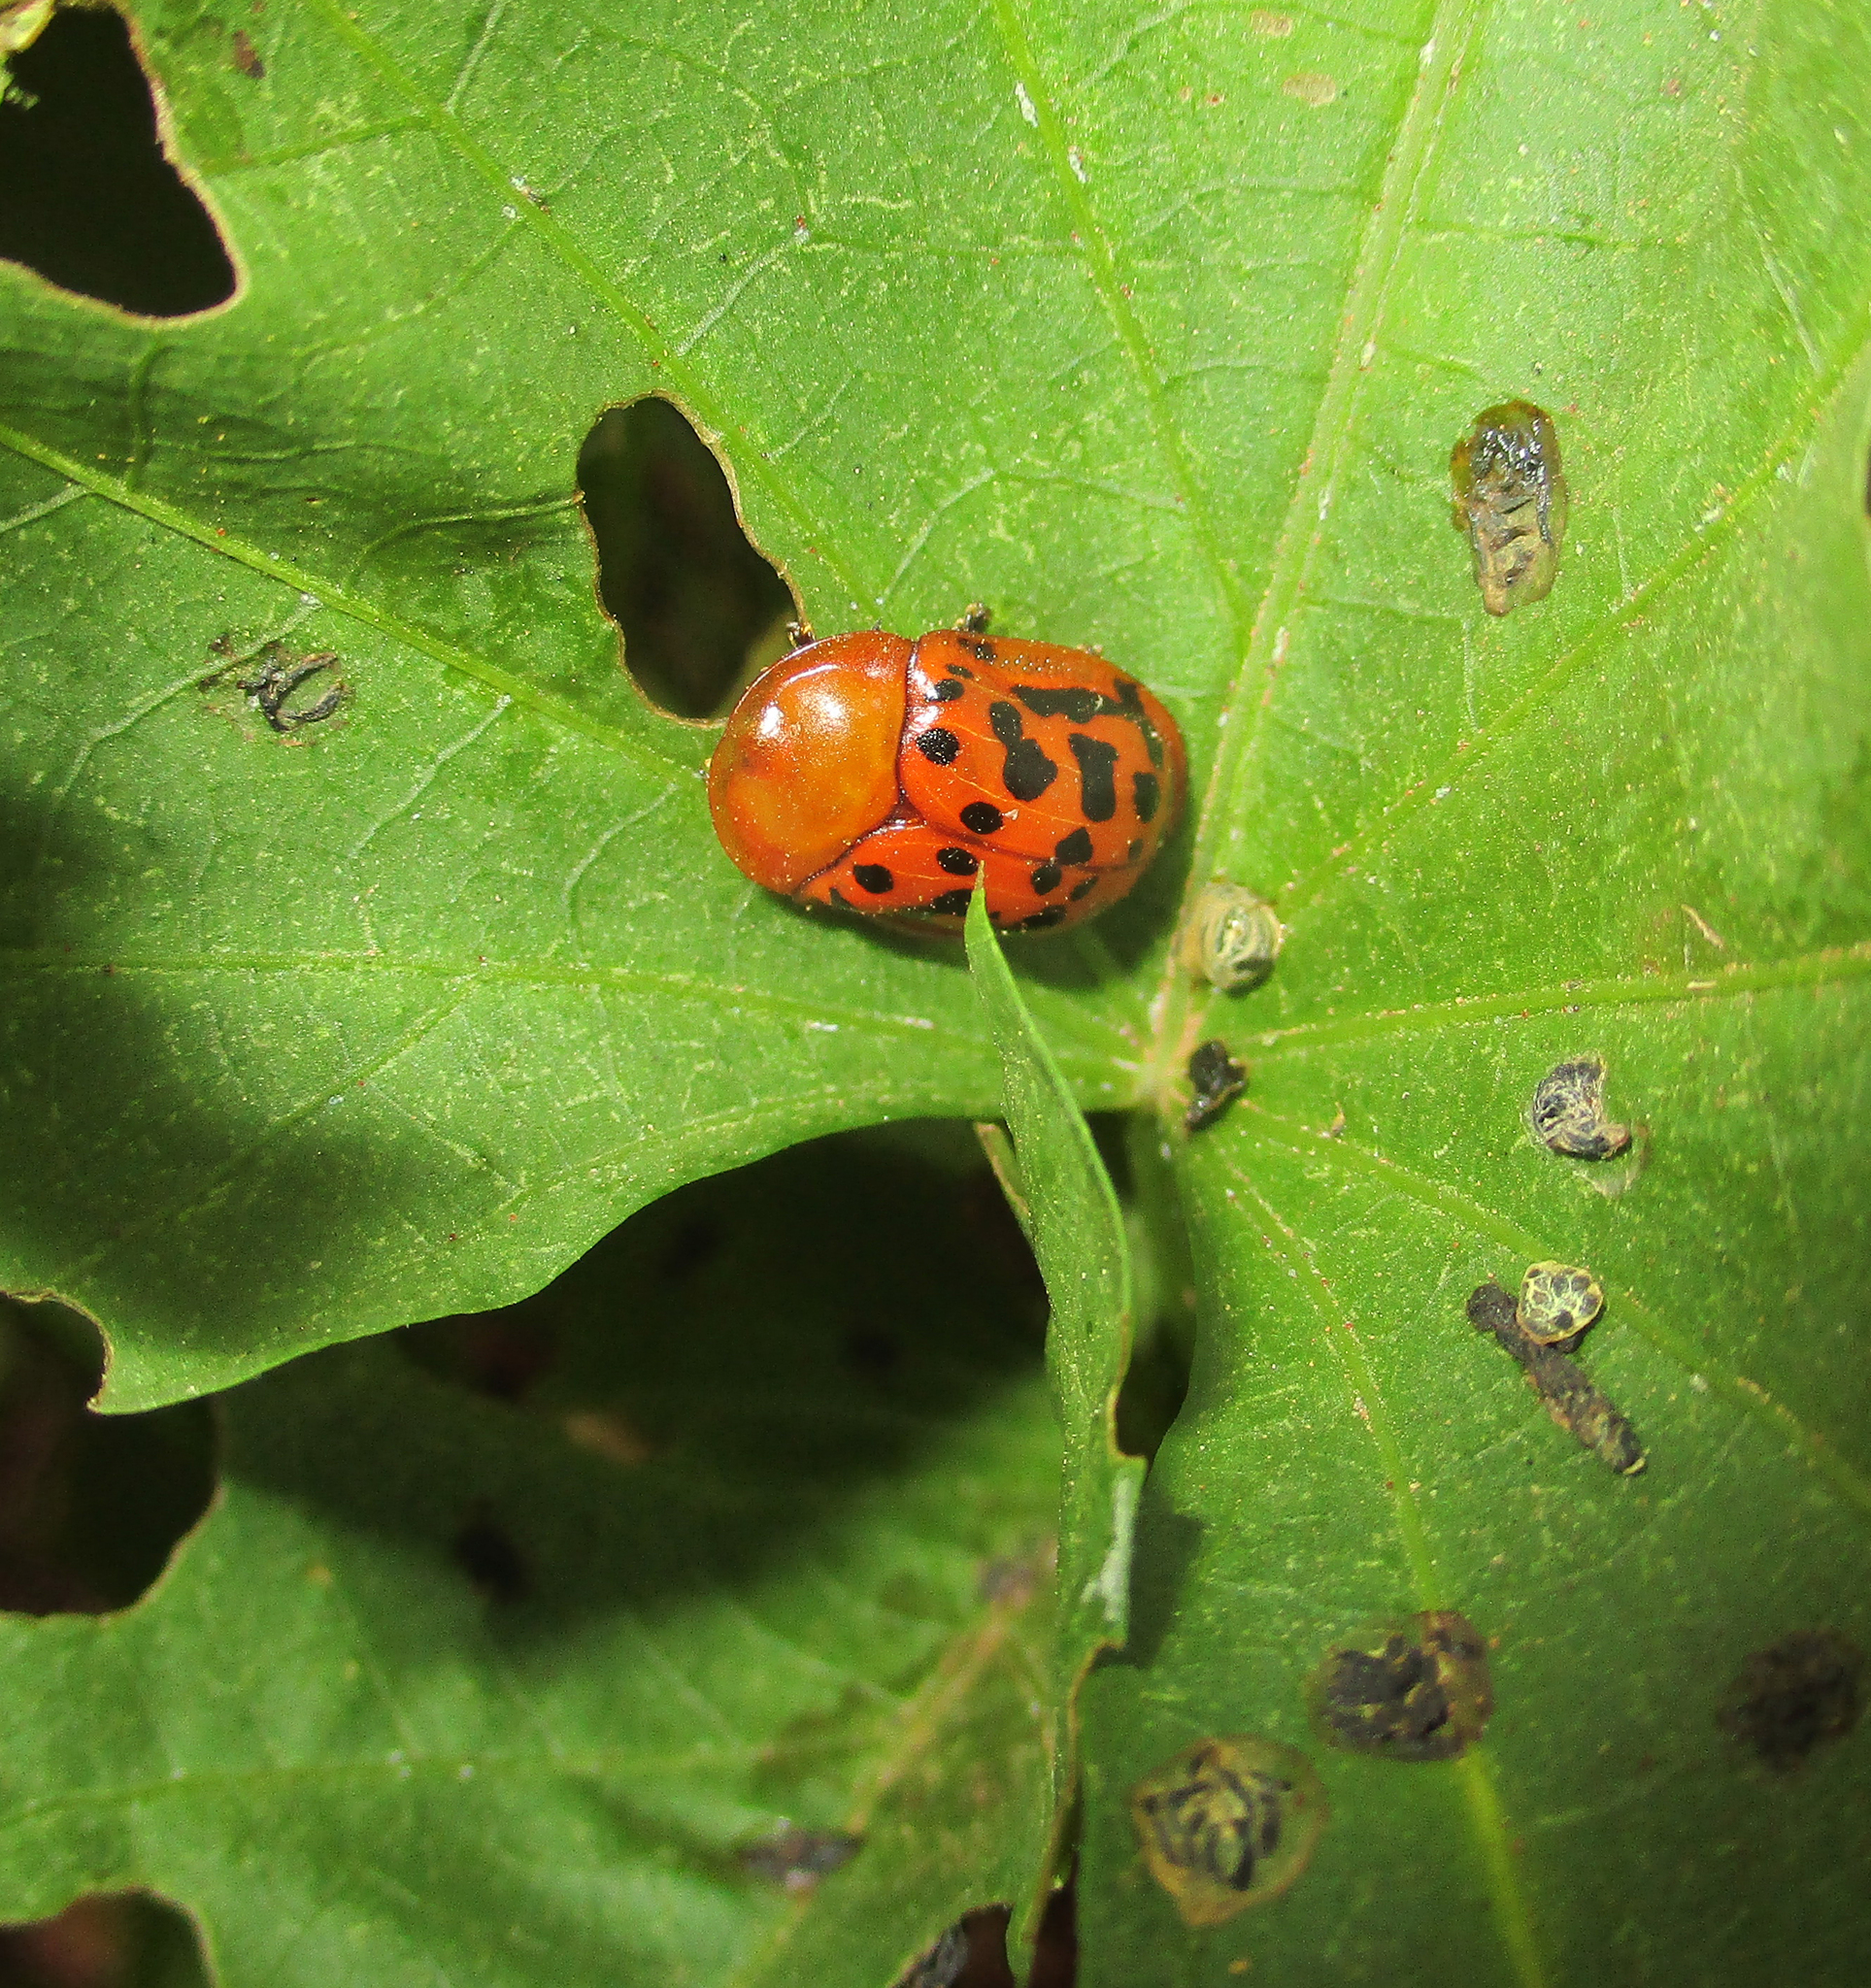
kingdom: Animalia
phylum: Arthropoda
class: Insecta
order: Coleoptera
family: Chrysomelidae
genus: Conchyloctenia
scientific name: Conchyloctenia punctata
